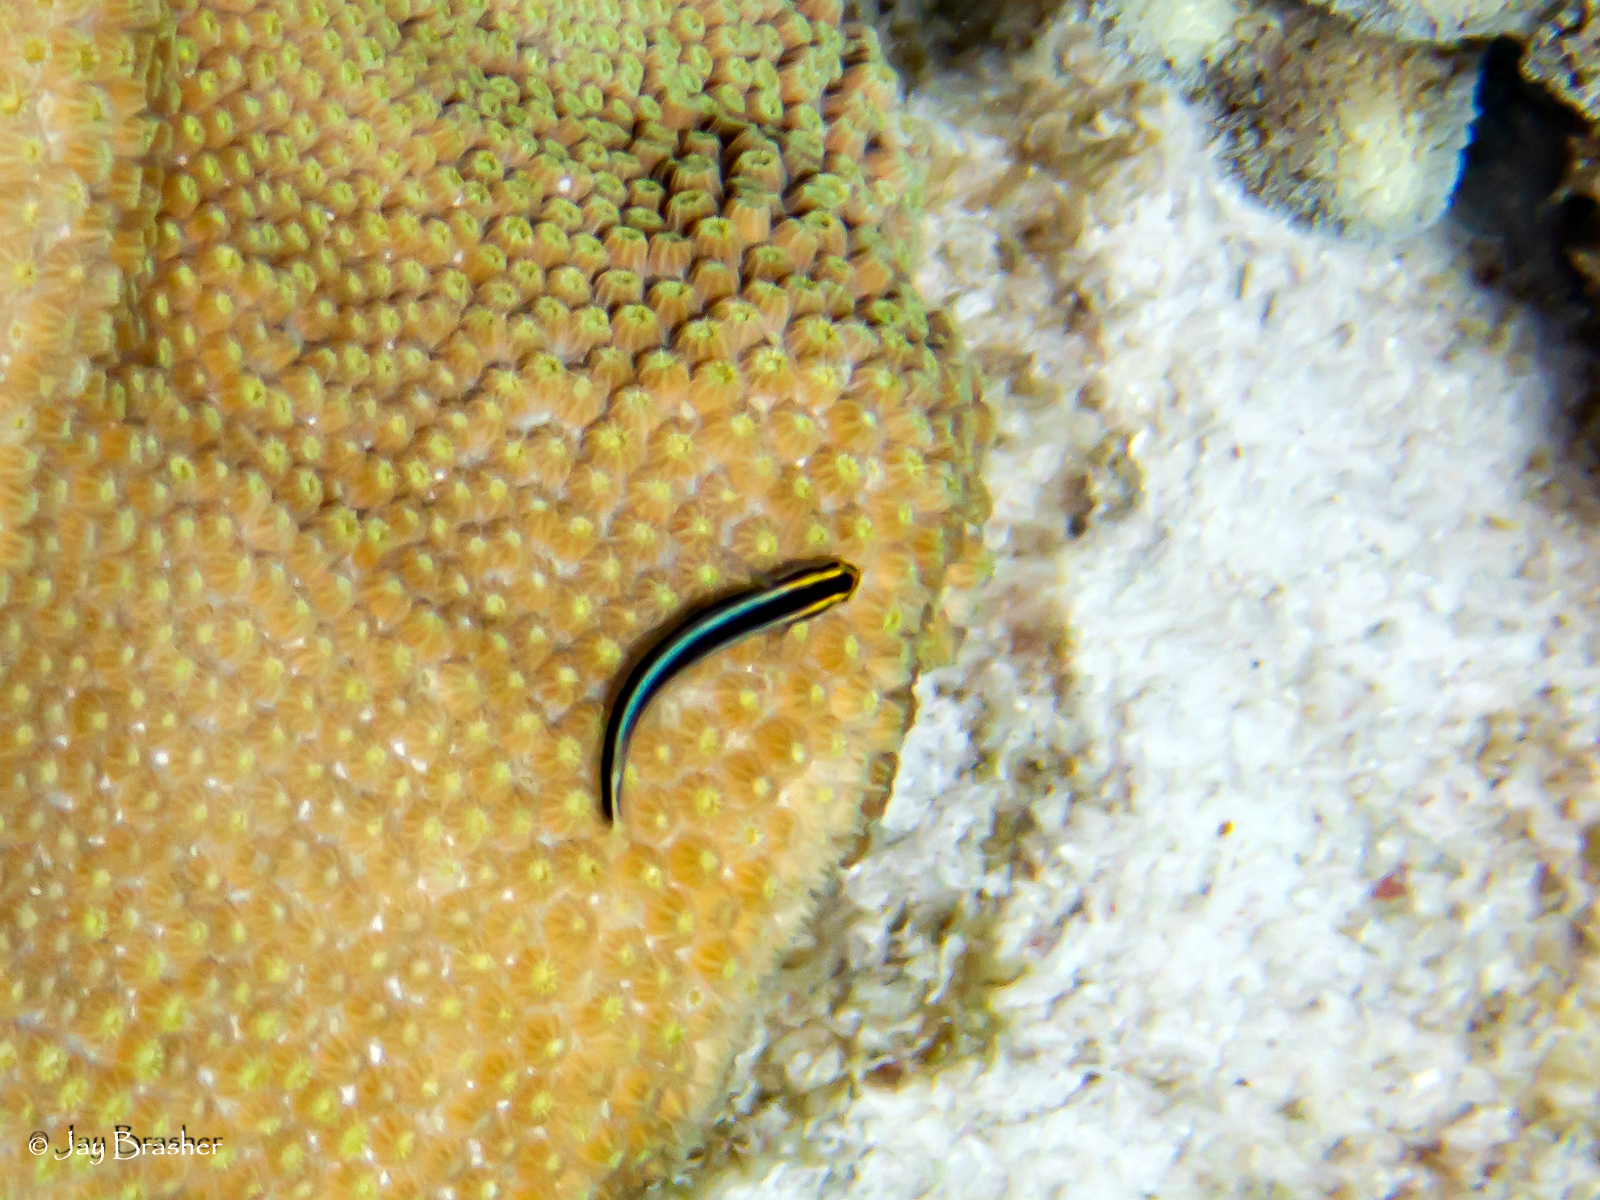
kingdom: Animalia
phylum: Chordata
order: Perciformes
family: Gobiidae
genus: Elacatinus
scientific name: Elacatinus evelynae
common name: Sharknose goby
